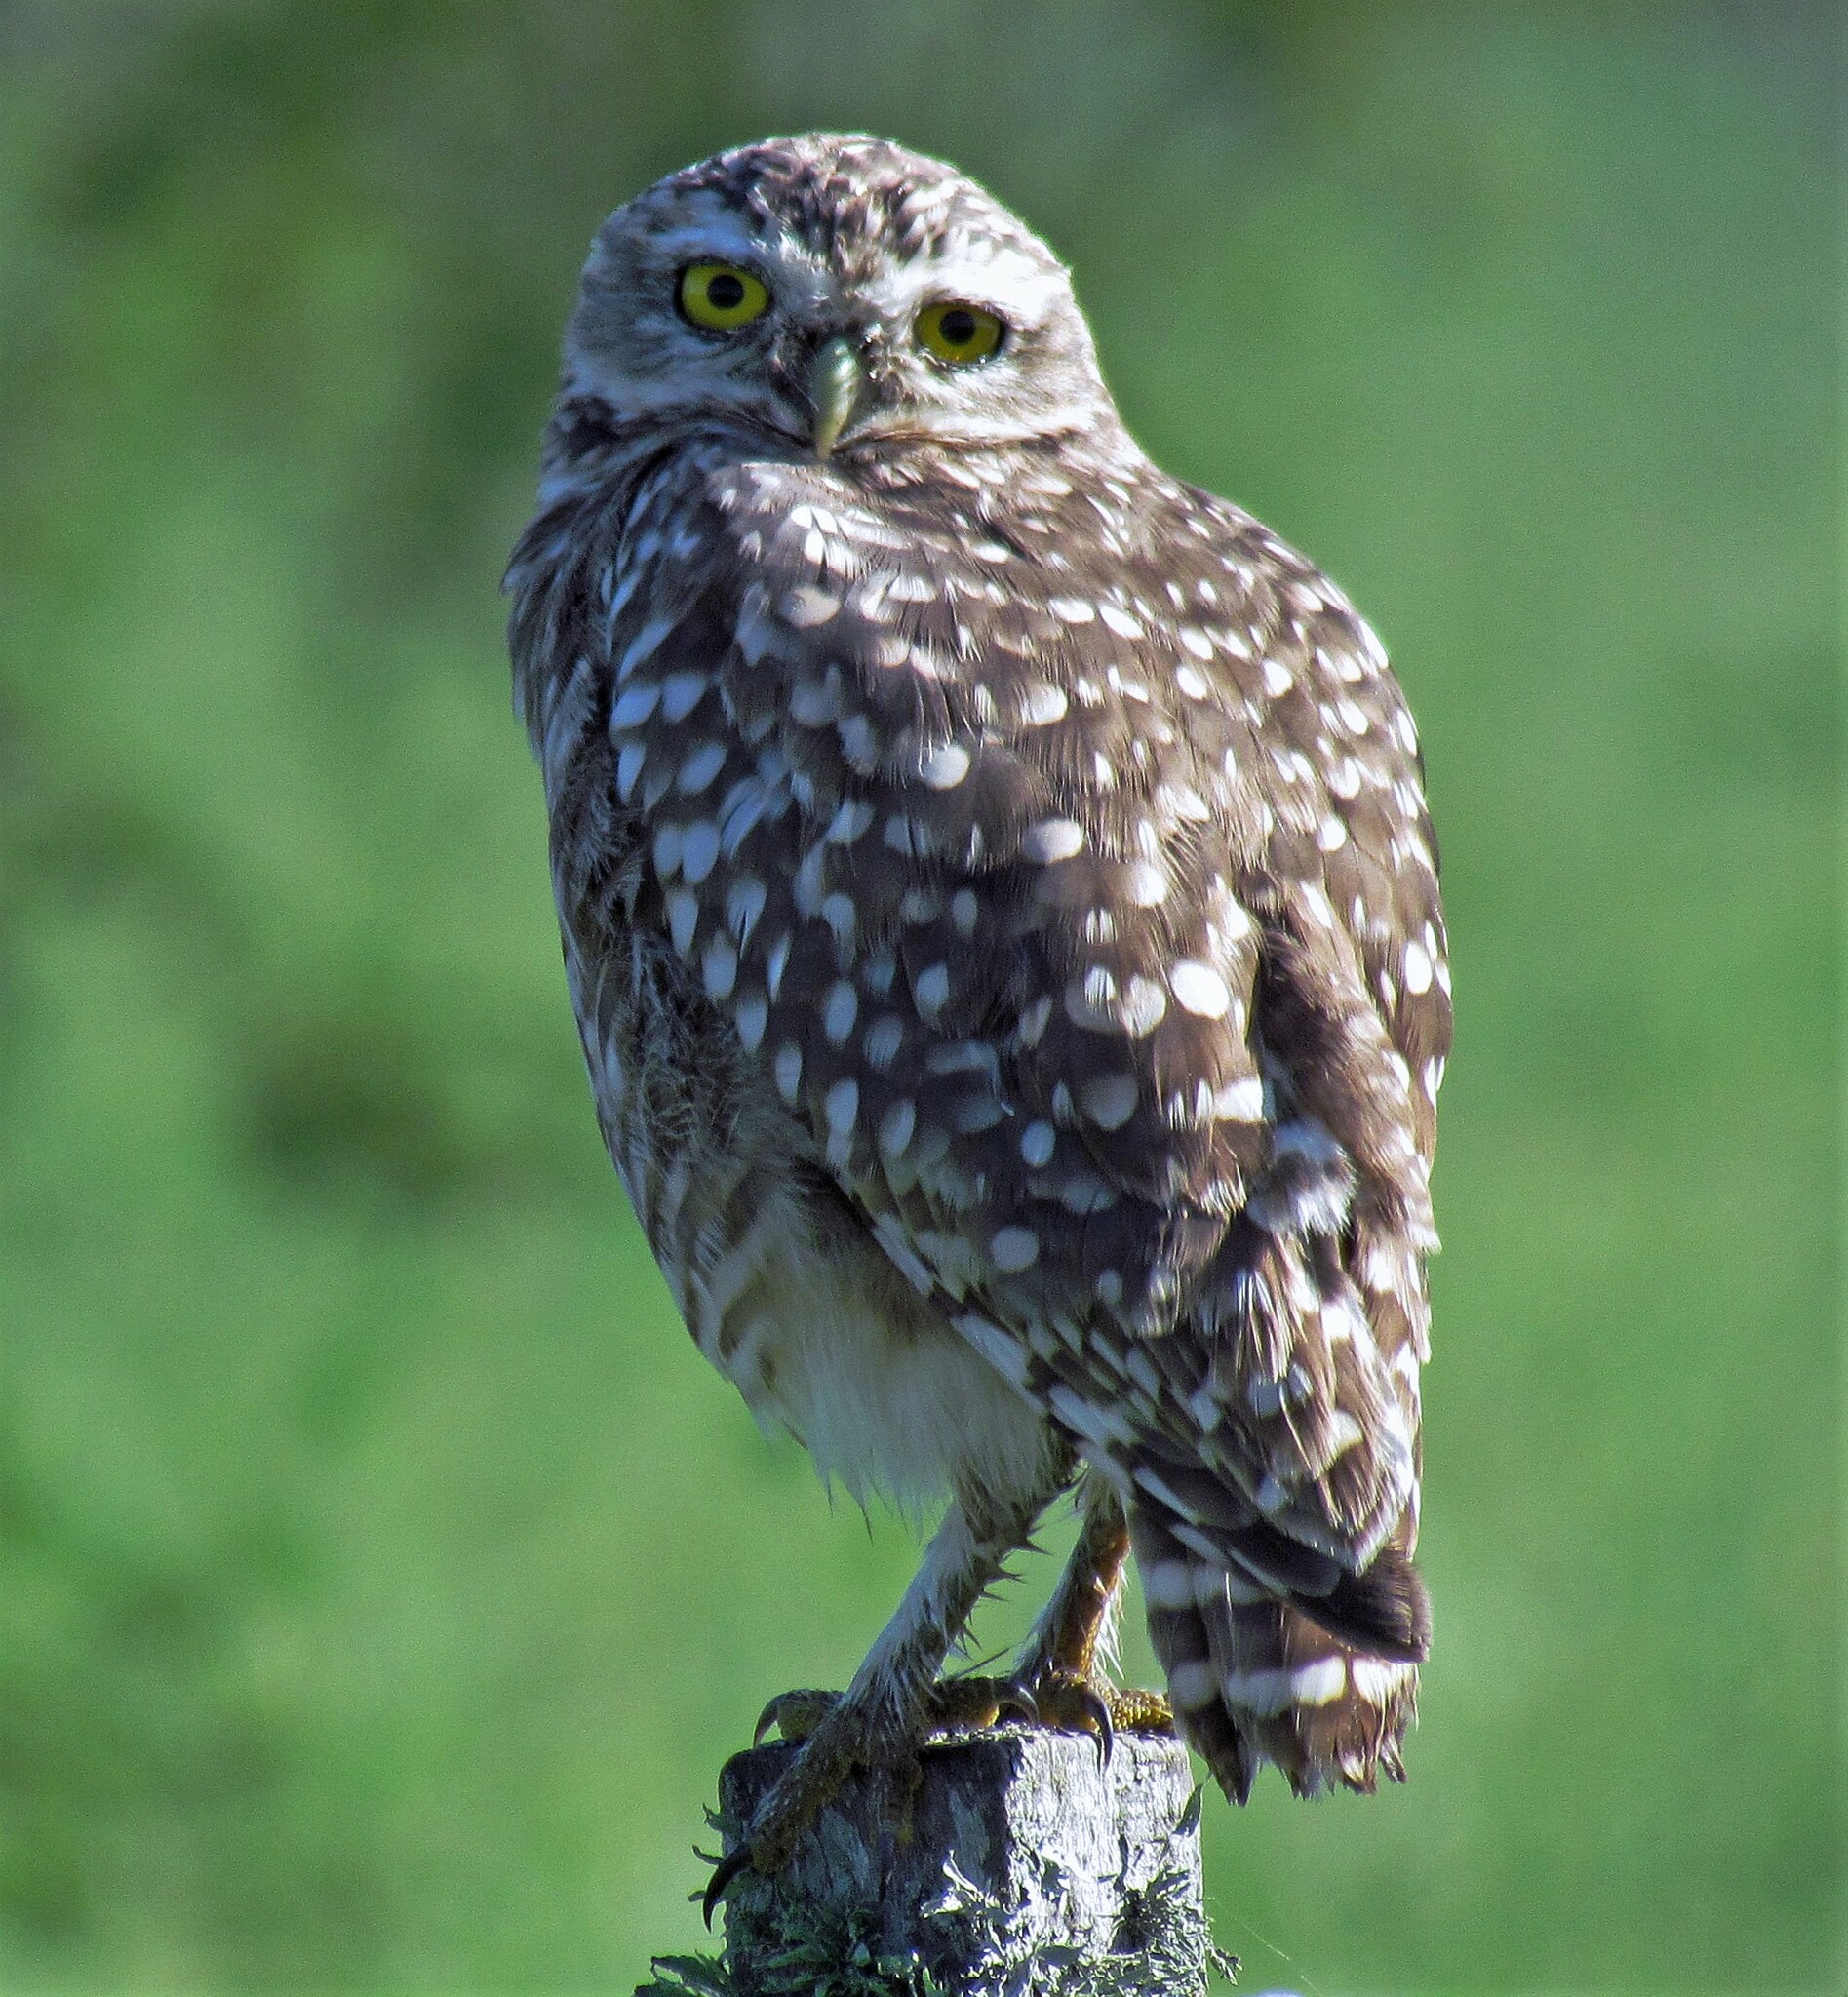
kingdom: Animalia
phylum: Chordata
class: Aves
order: Strigiformes
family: Strigidae
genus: Athene
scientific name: Athene cunicularia
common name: Burrowing owl
